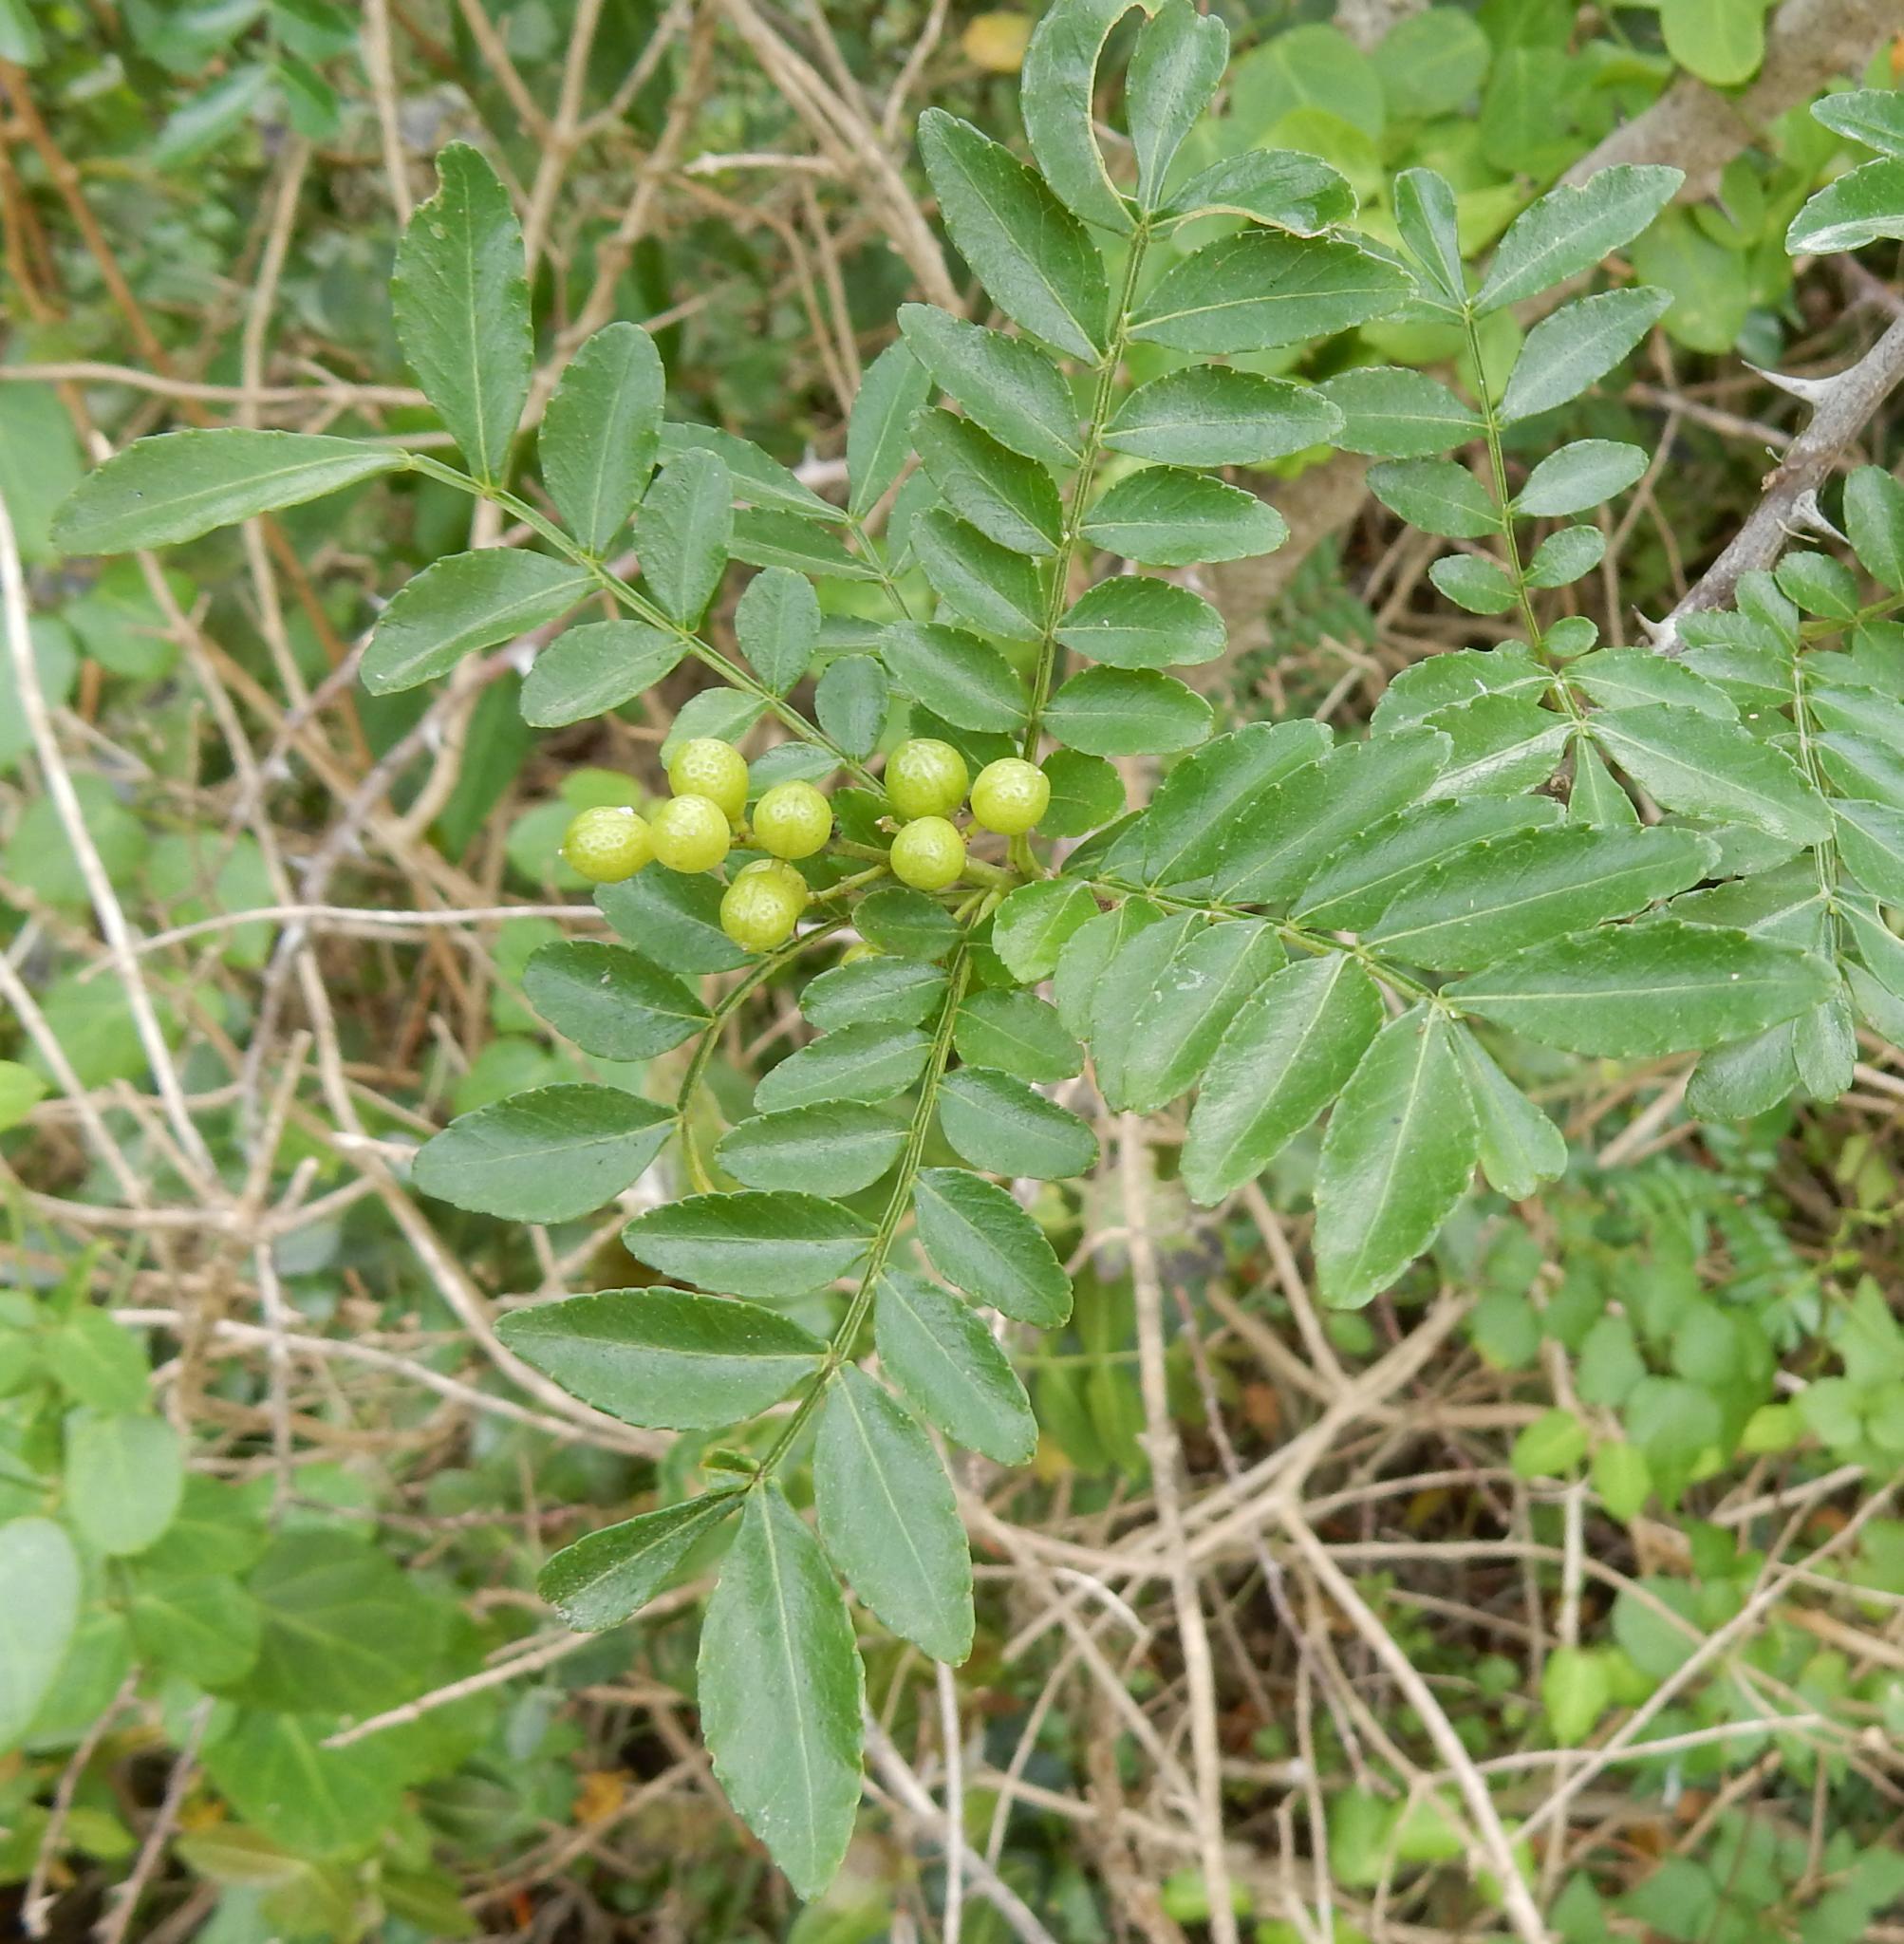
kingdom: Plantae
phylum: Tracheophyta
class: Magnoliopsida
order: Sapindales
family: Rutaceae
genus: Zanthoxylum
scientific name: Zanthoxylum capense
